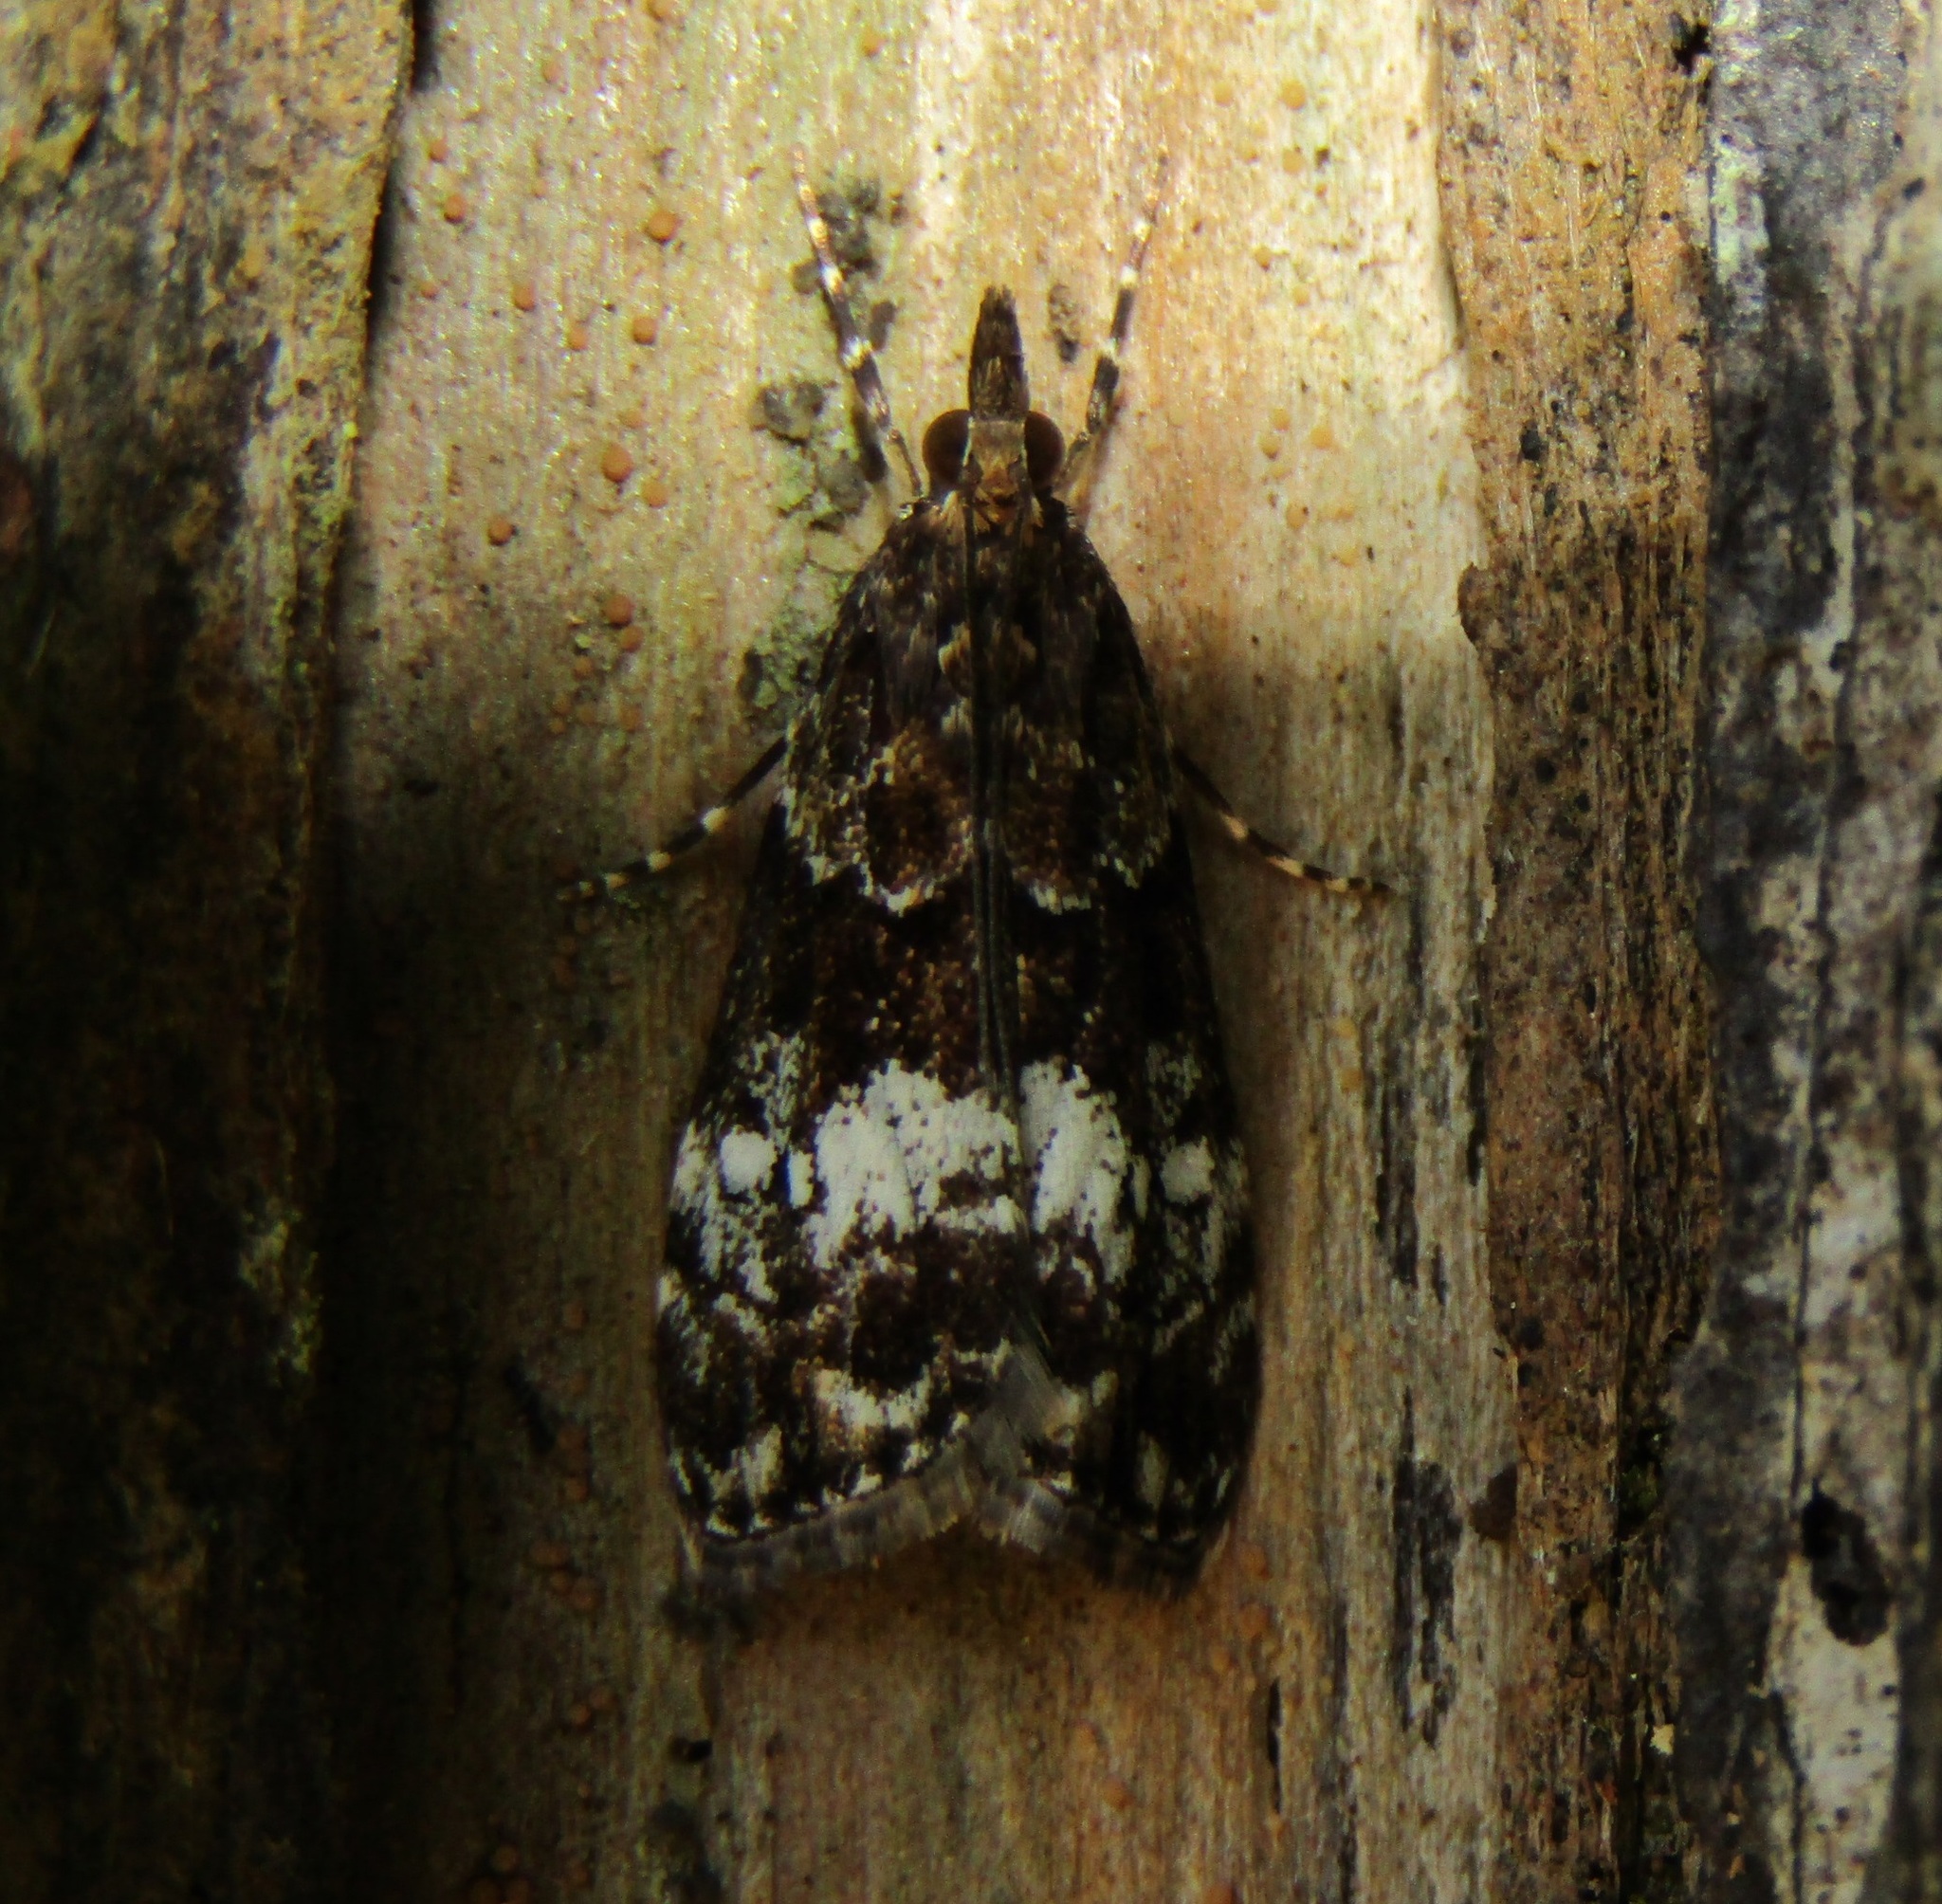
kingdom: Animalia
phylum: Arthropoda
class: Insecta
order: Lepidoptera
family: Crambidae
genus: Eudonia
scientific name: Eudonia dinodes
